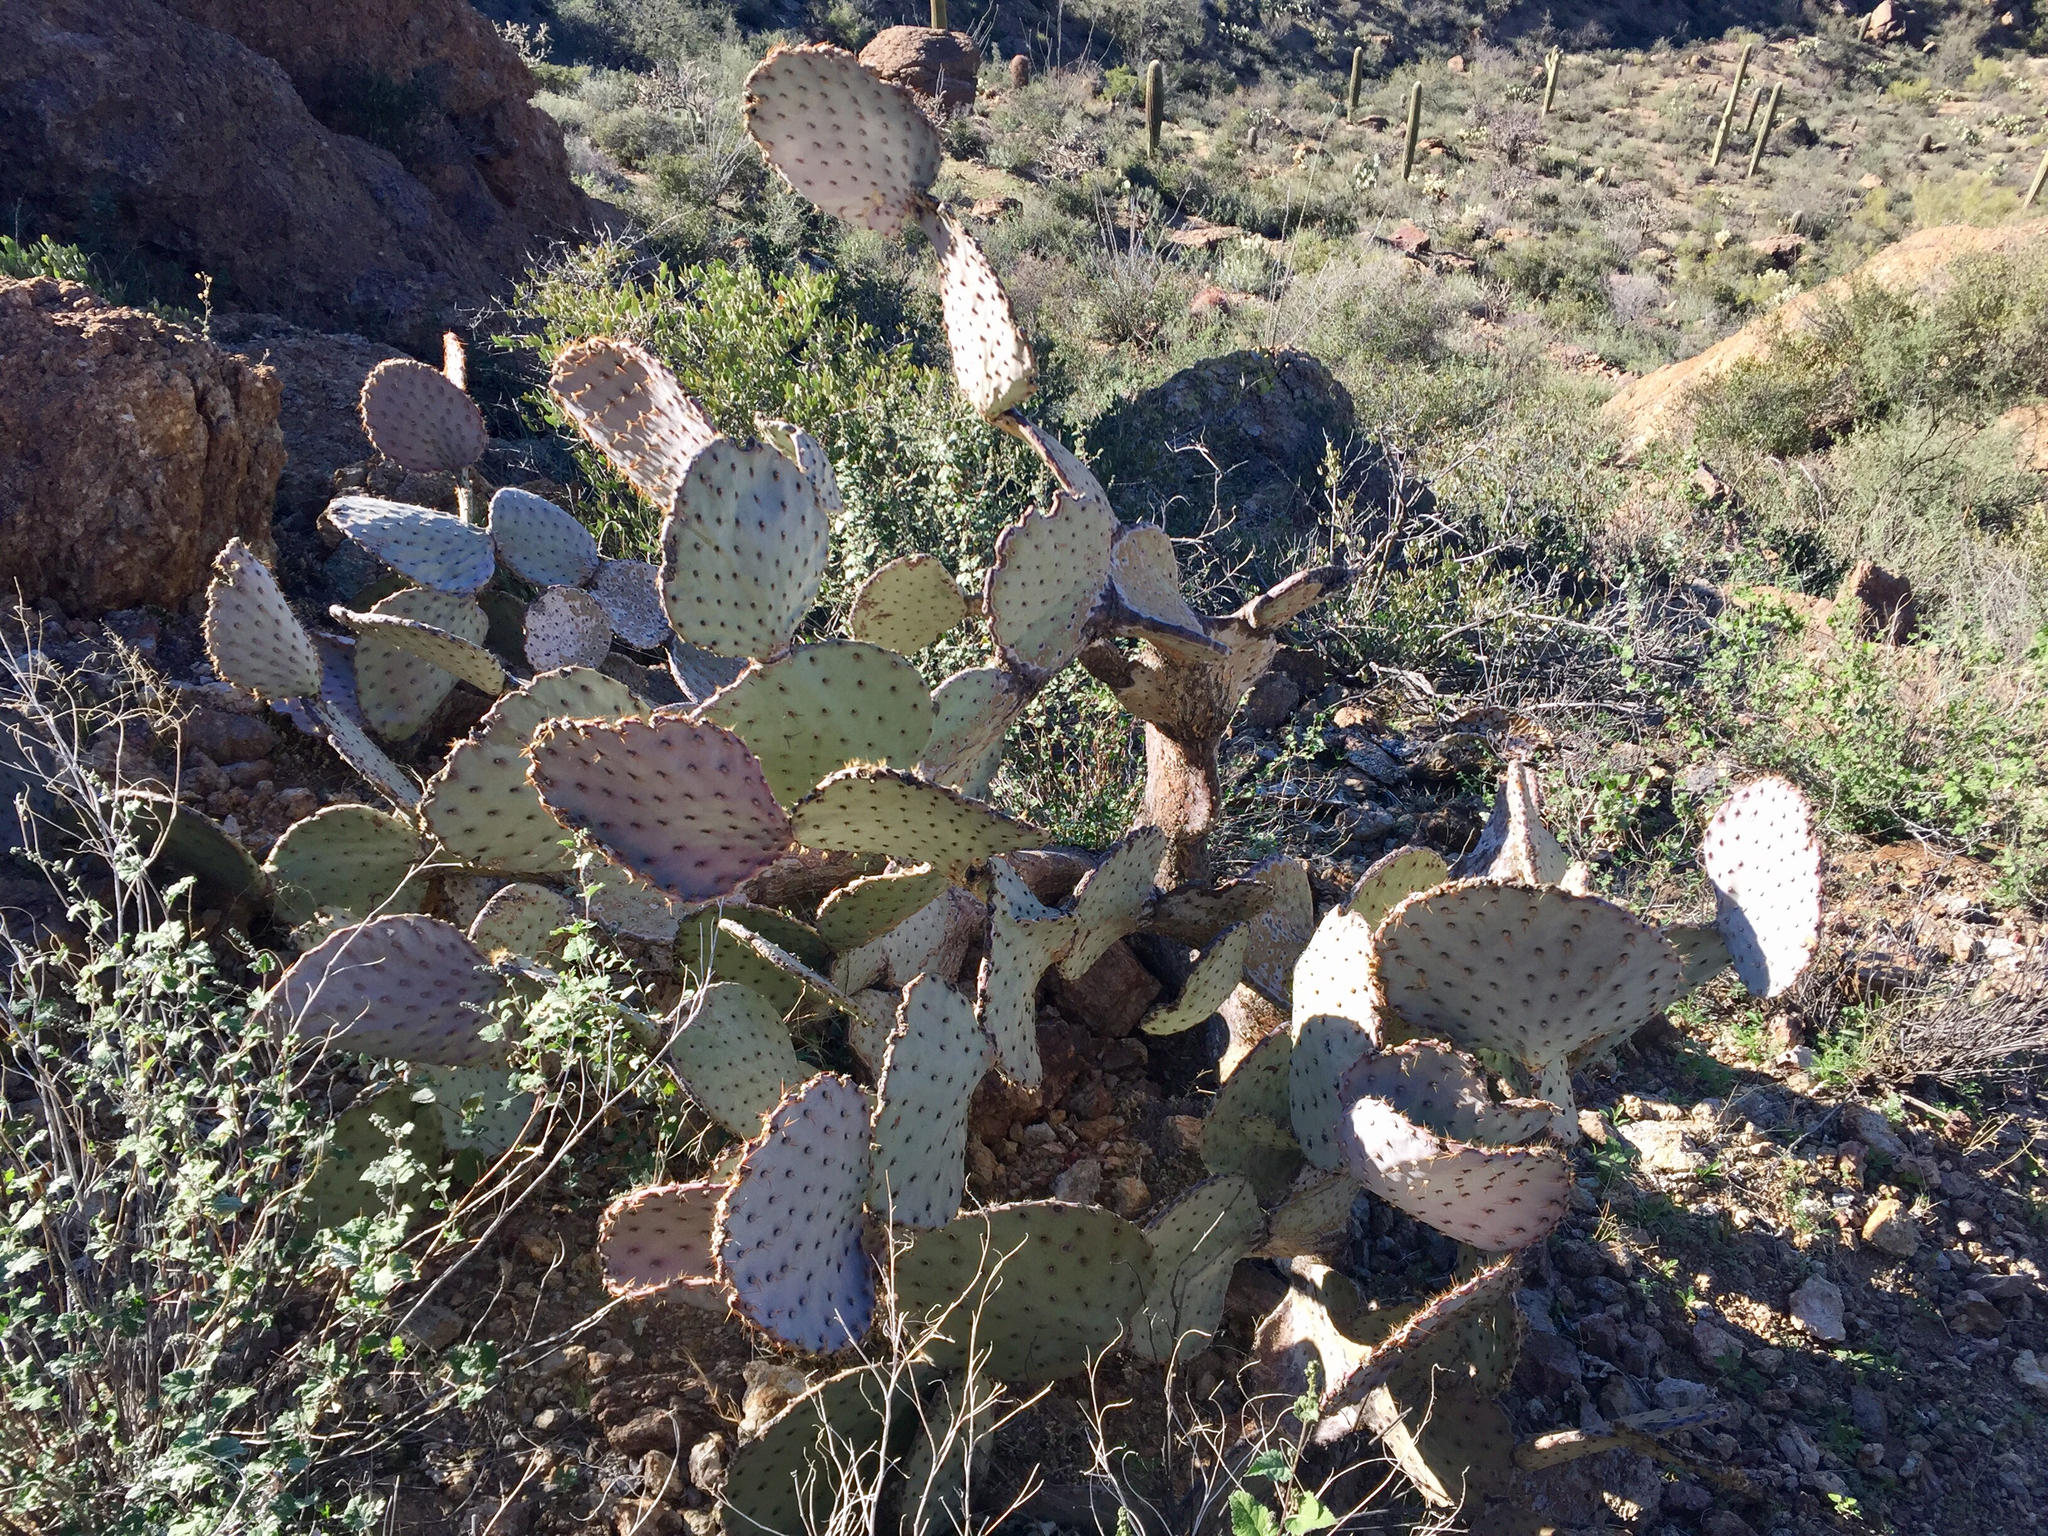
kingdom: Plantae
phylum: Tracheophyta
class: Magnoliopsida
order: Caryophyllales
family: Cactaceae
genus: Opuntia
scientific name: Opuntia gosseliniana
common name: Violet prickly-pear
